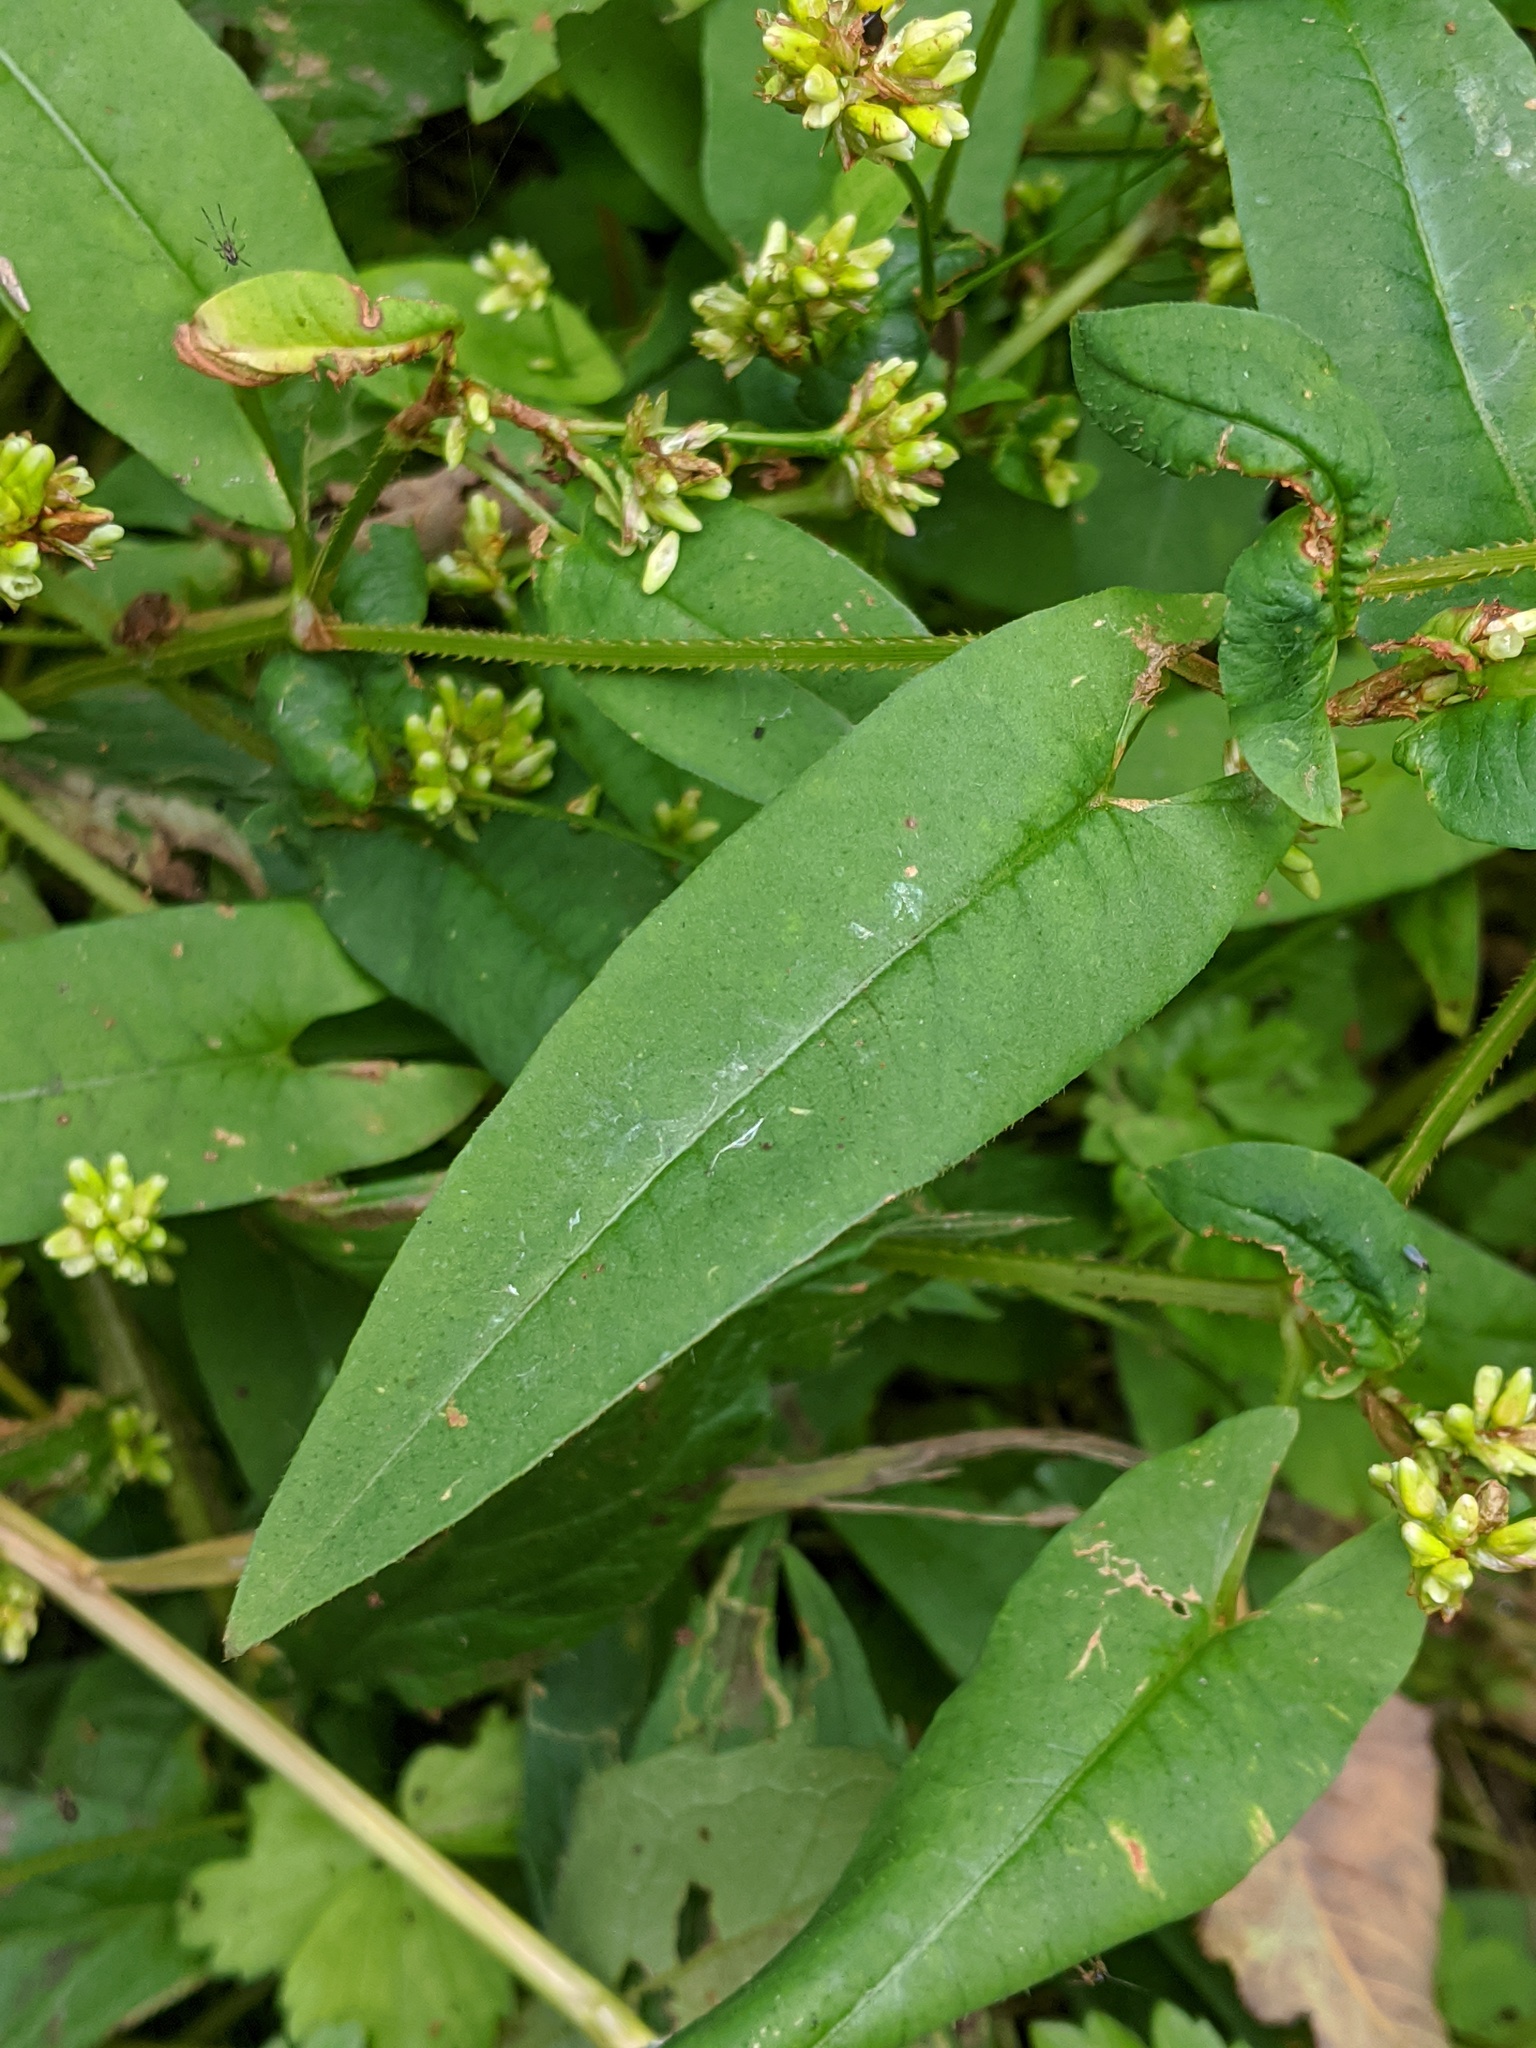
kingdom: Plantae
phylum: Tracheophyta
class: Magnoliopsida
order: Caryophyllales
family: Polygonaceae
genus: Persicaria
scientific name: Persicaria sagittata
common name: American tearthumb
